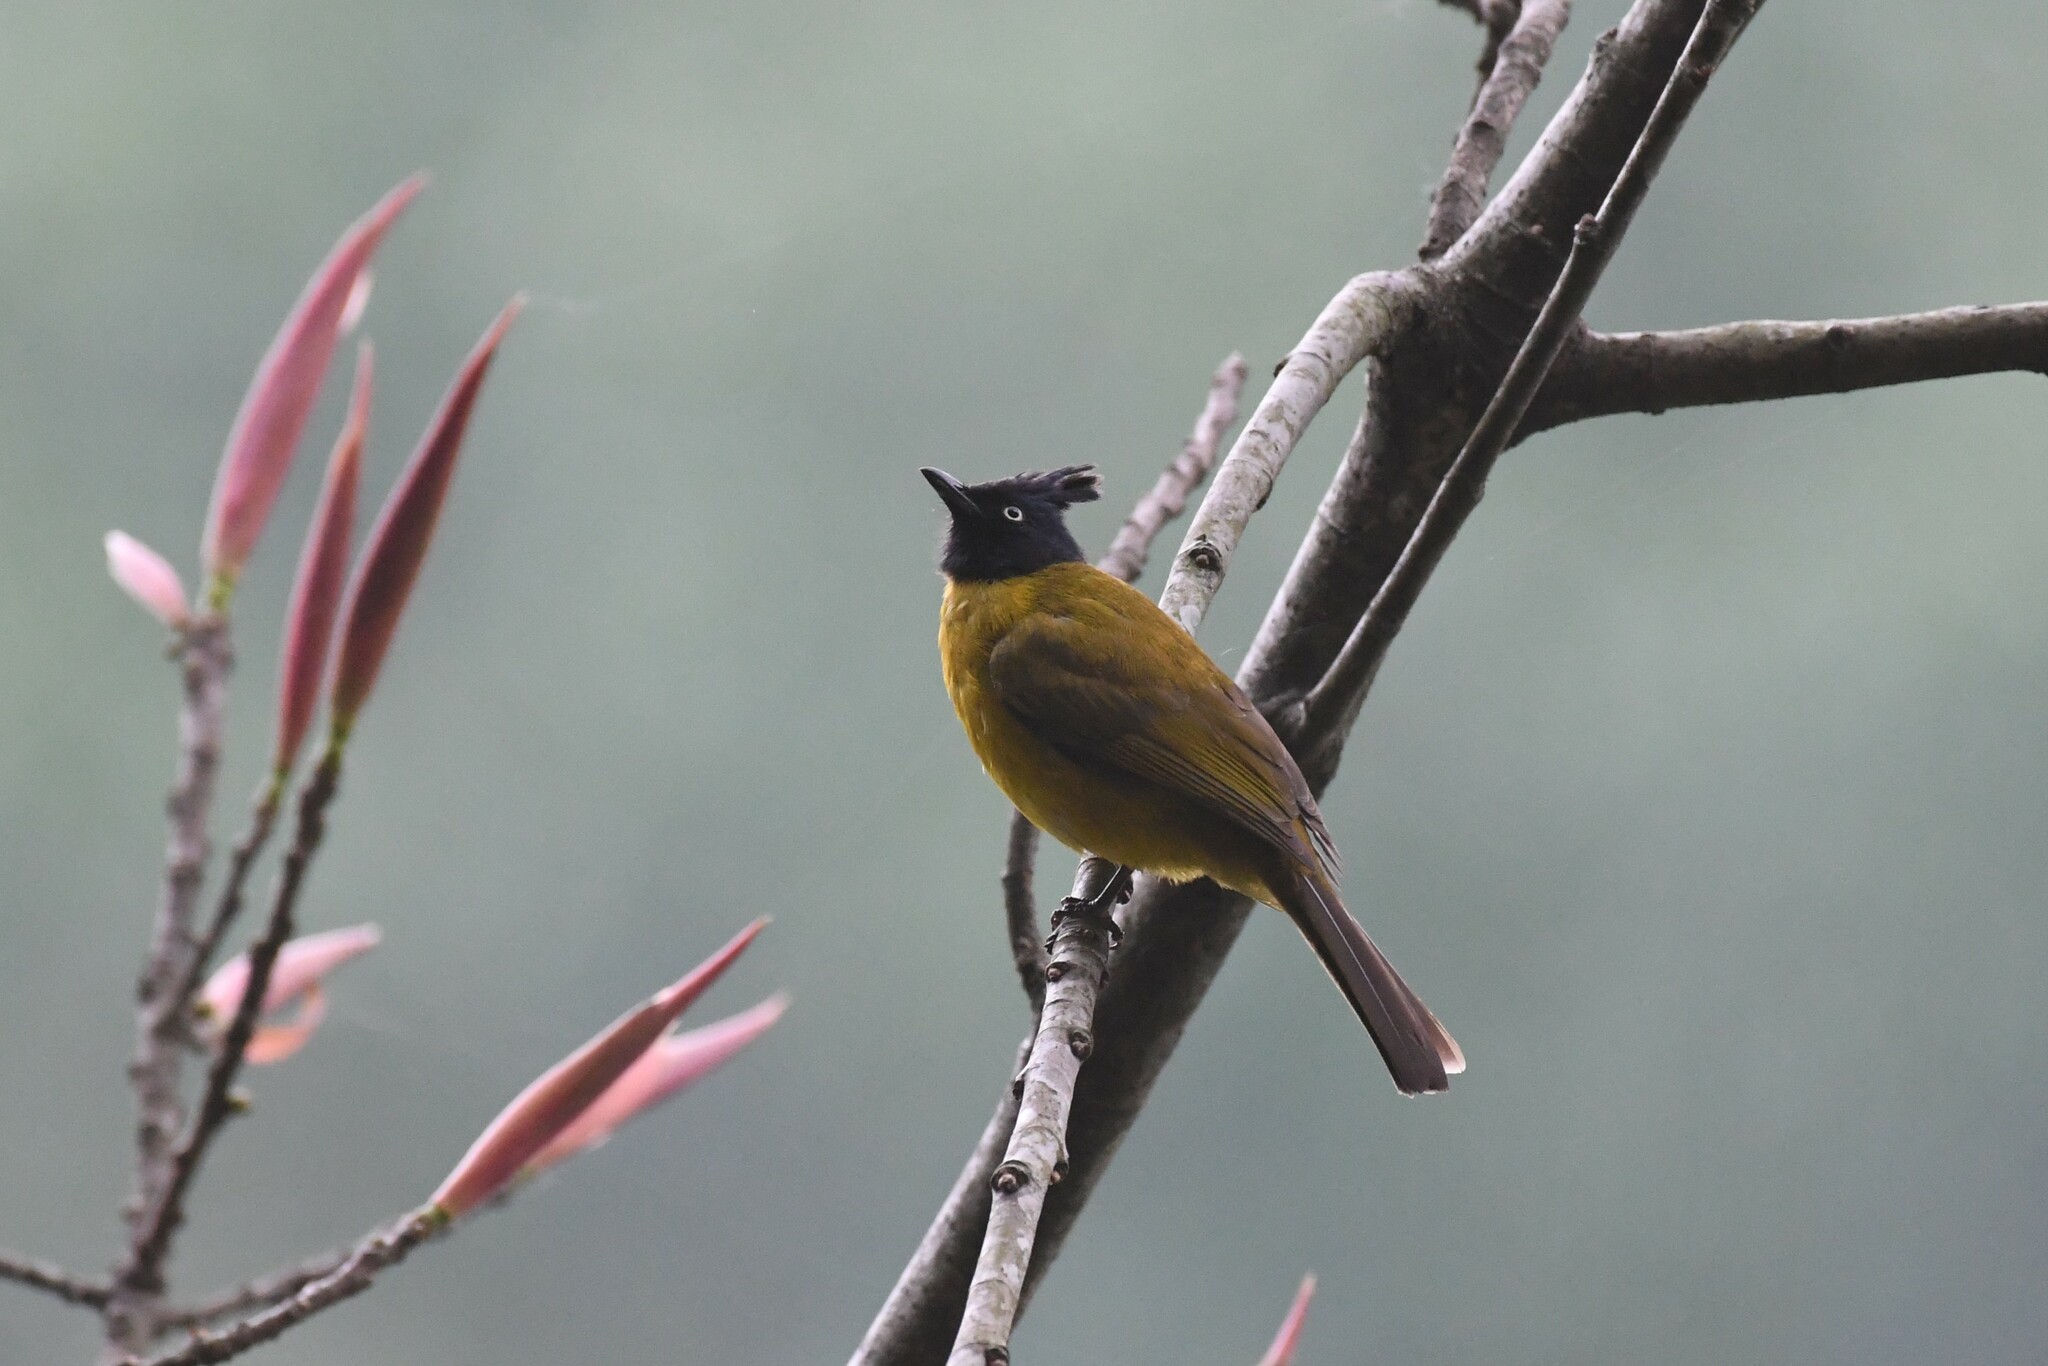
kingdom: Animalia
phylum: Chordata
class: Aves
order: Passeriformes
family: Pycnonotidae
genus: Pycnonotus
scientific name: Pycnonotus flaviventris
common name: Black-crested bulbul
